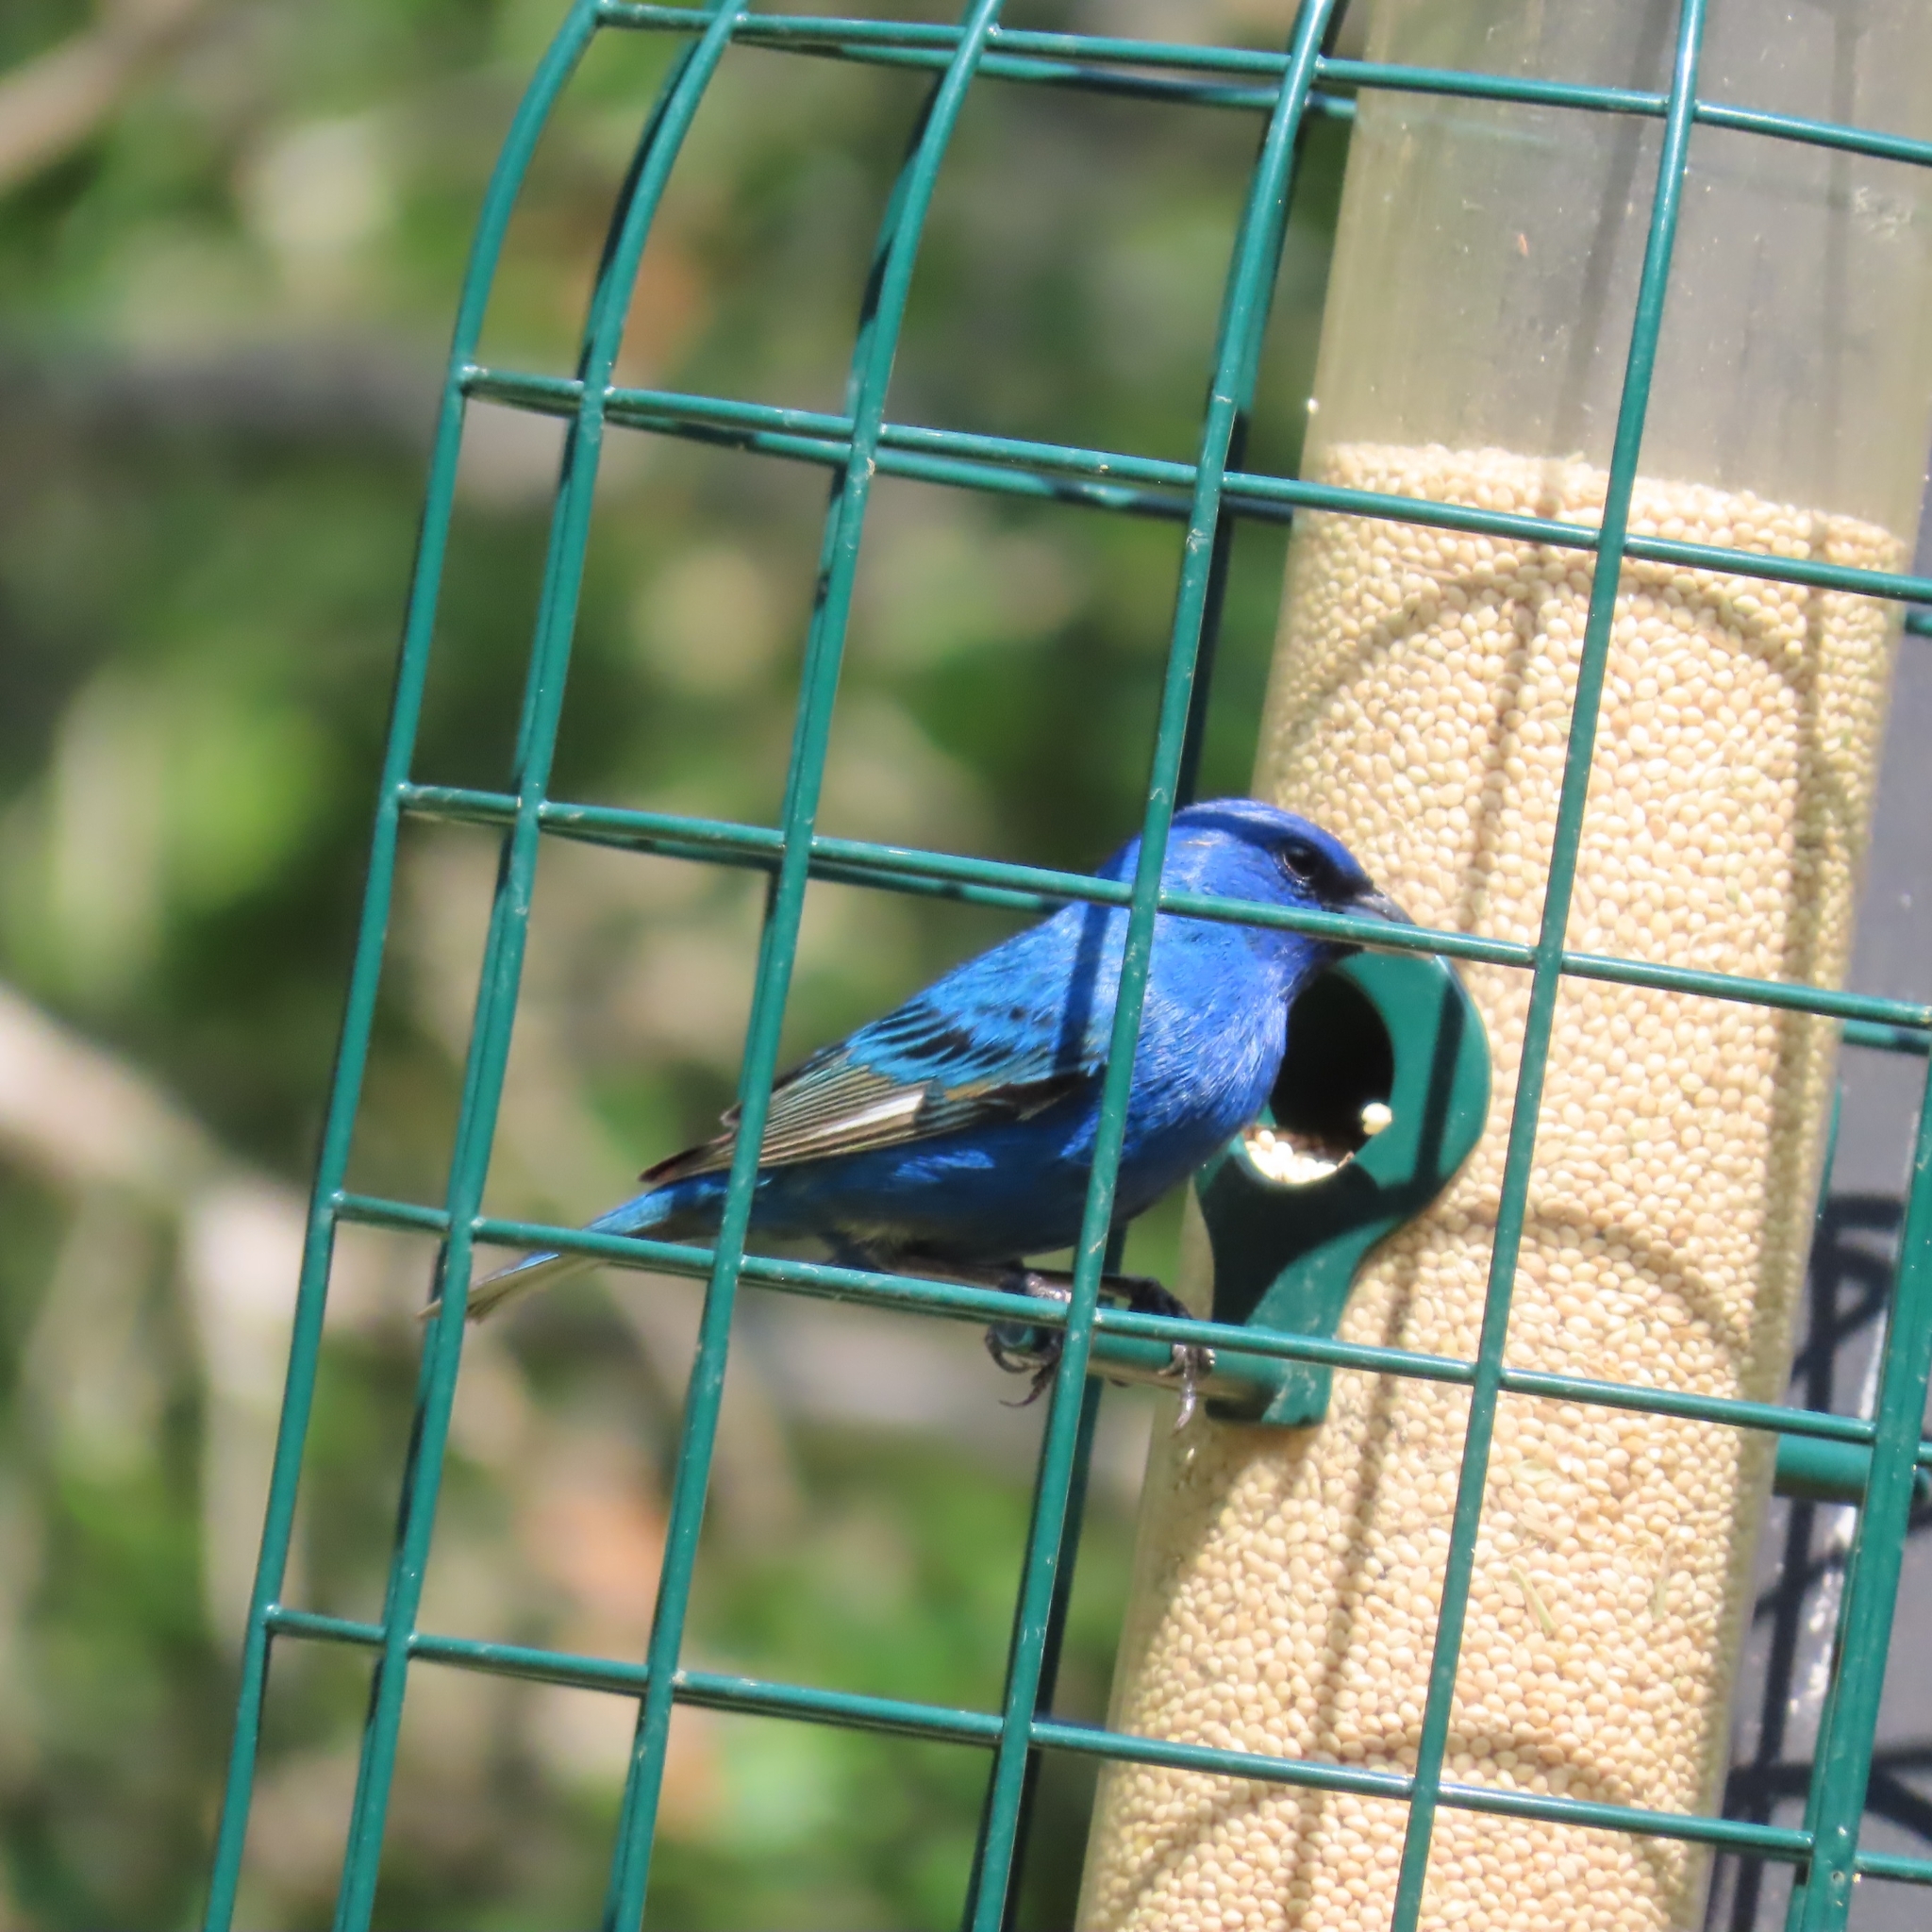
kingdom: Animalia
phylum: Chordata
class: Aves
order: Passeriformes
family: Cardinalidae
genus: Passerina
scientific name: Passerina cyanea
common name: Indigo bunting
